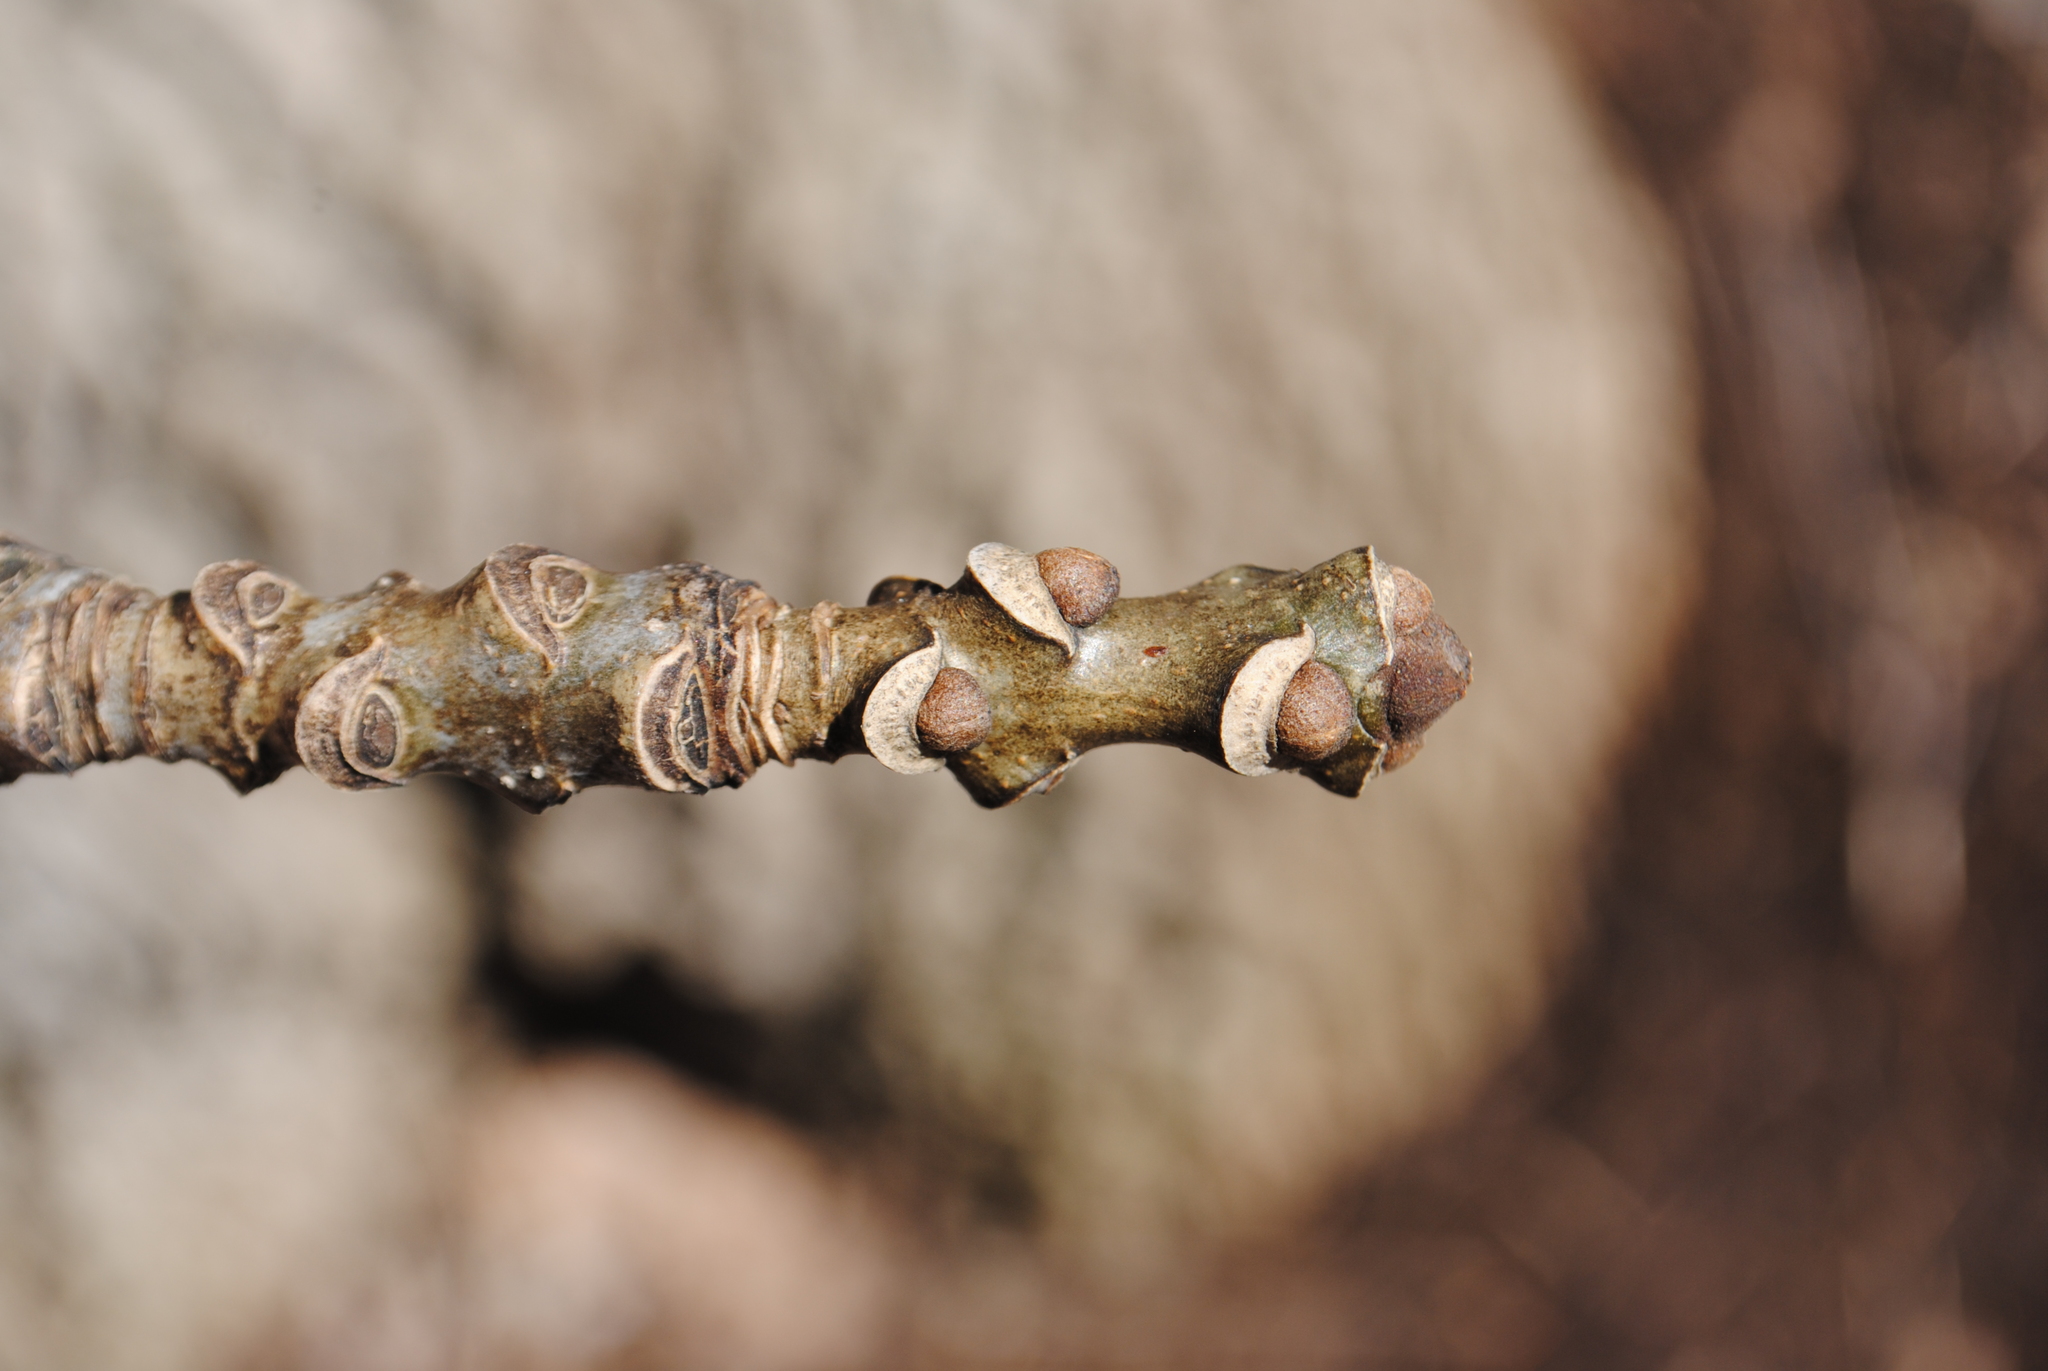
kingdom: Plantae
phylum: Tracheophyta
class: Magnoliopsida
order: Lamiales
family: Oleaceae
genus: Fraxinus
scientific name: Fraxinus americana
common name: White ash
